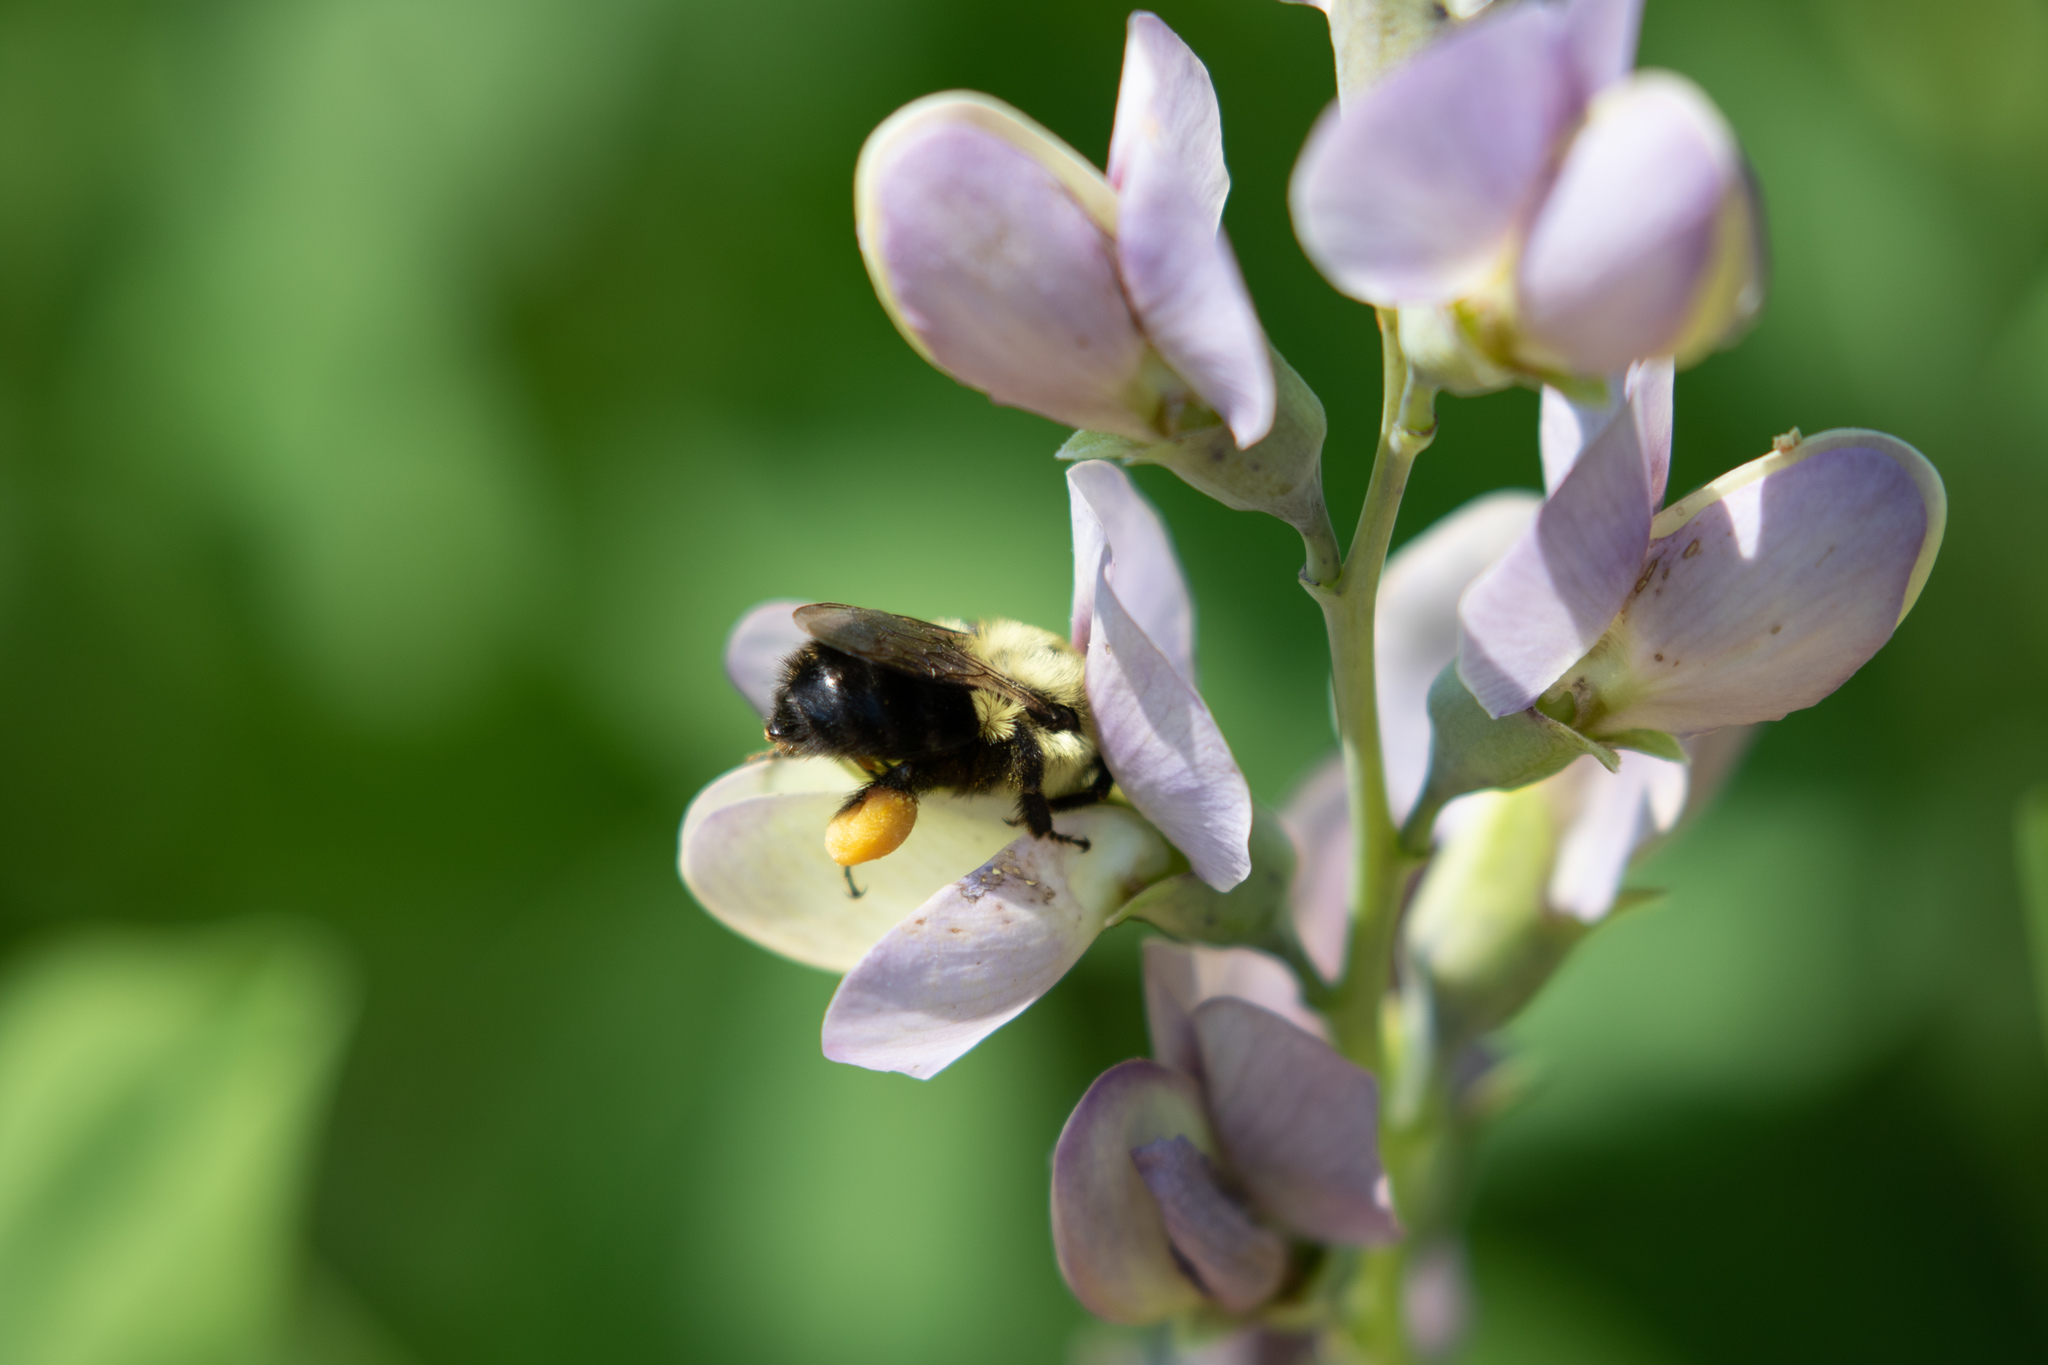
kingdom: Animalia
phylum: Arthropoda
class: Insecta
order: Hymenoptera
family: Apidae
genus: Bombus
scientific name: Bombus impatiens
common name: Common eastern bumble bee
